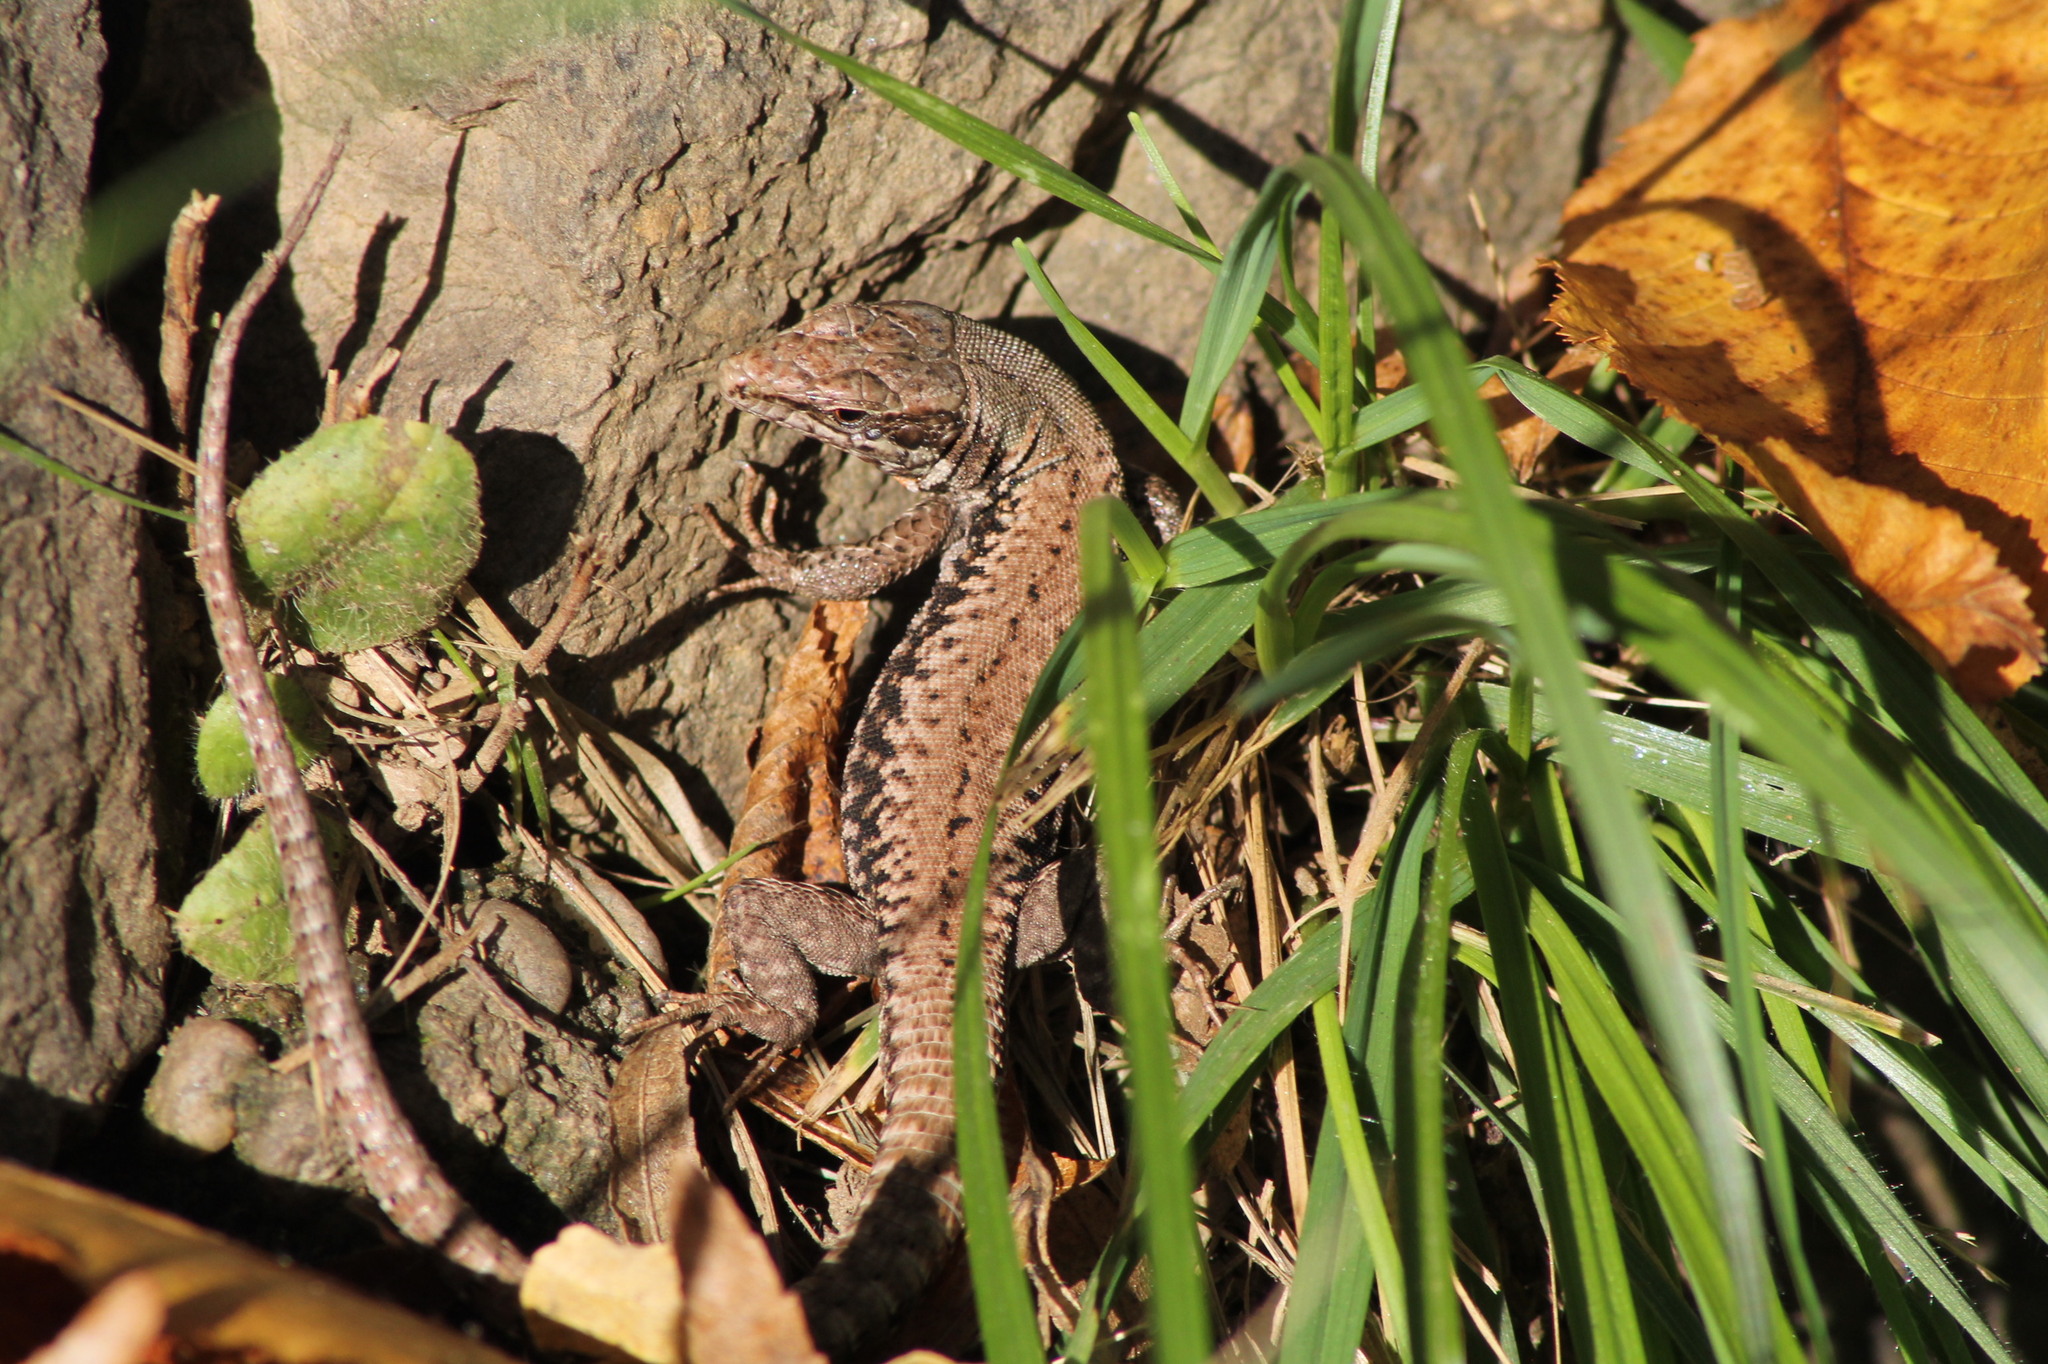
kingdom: Animalia
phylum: Chordata
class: Squamata
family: Lacertidae
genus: Podarcis
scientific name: Podarcis muralis
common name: Common wall lizard
